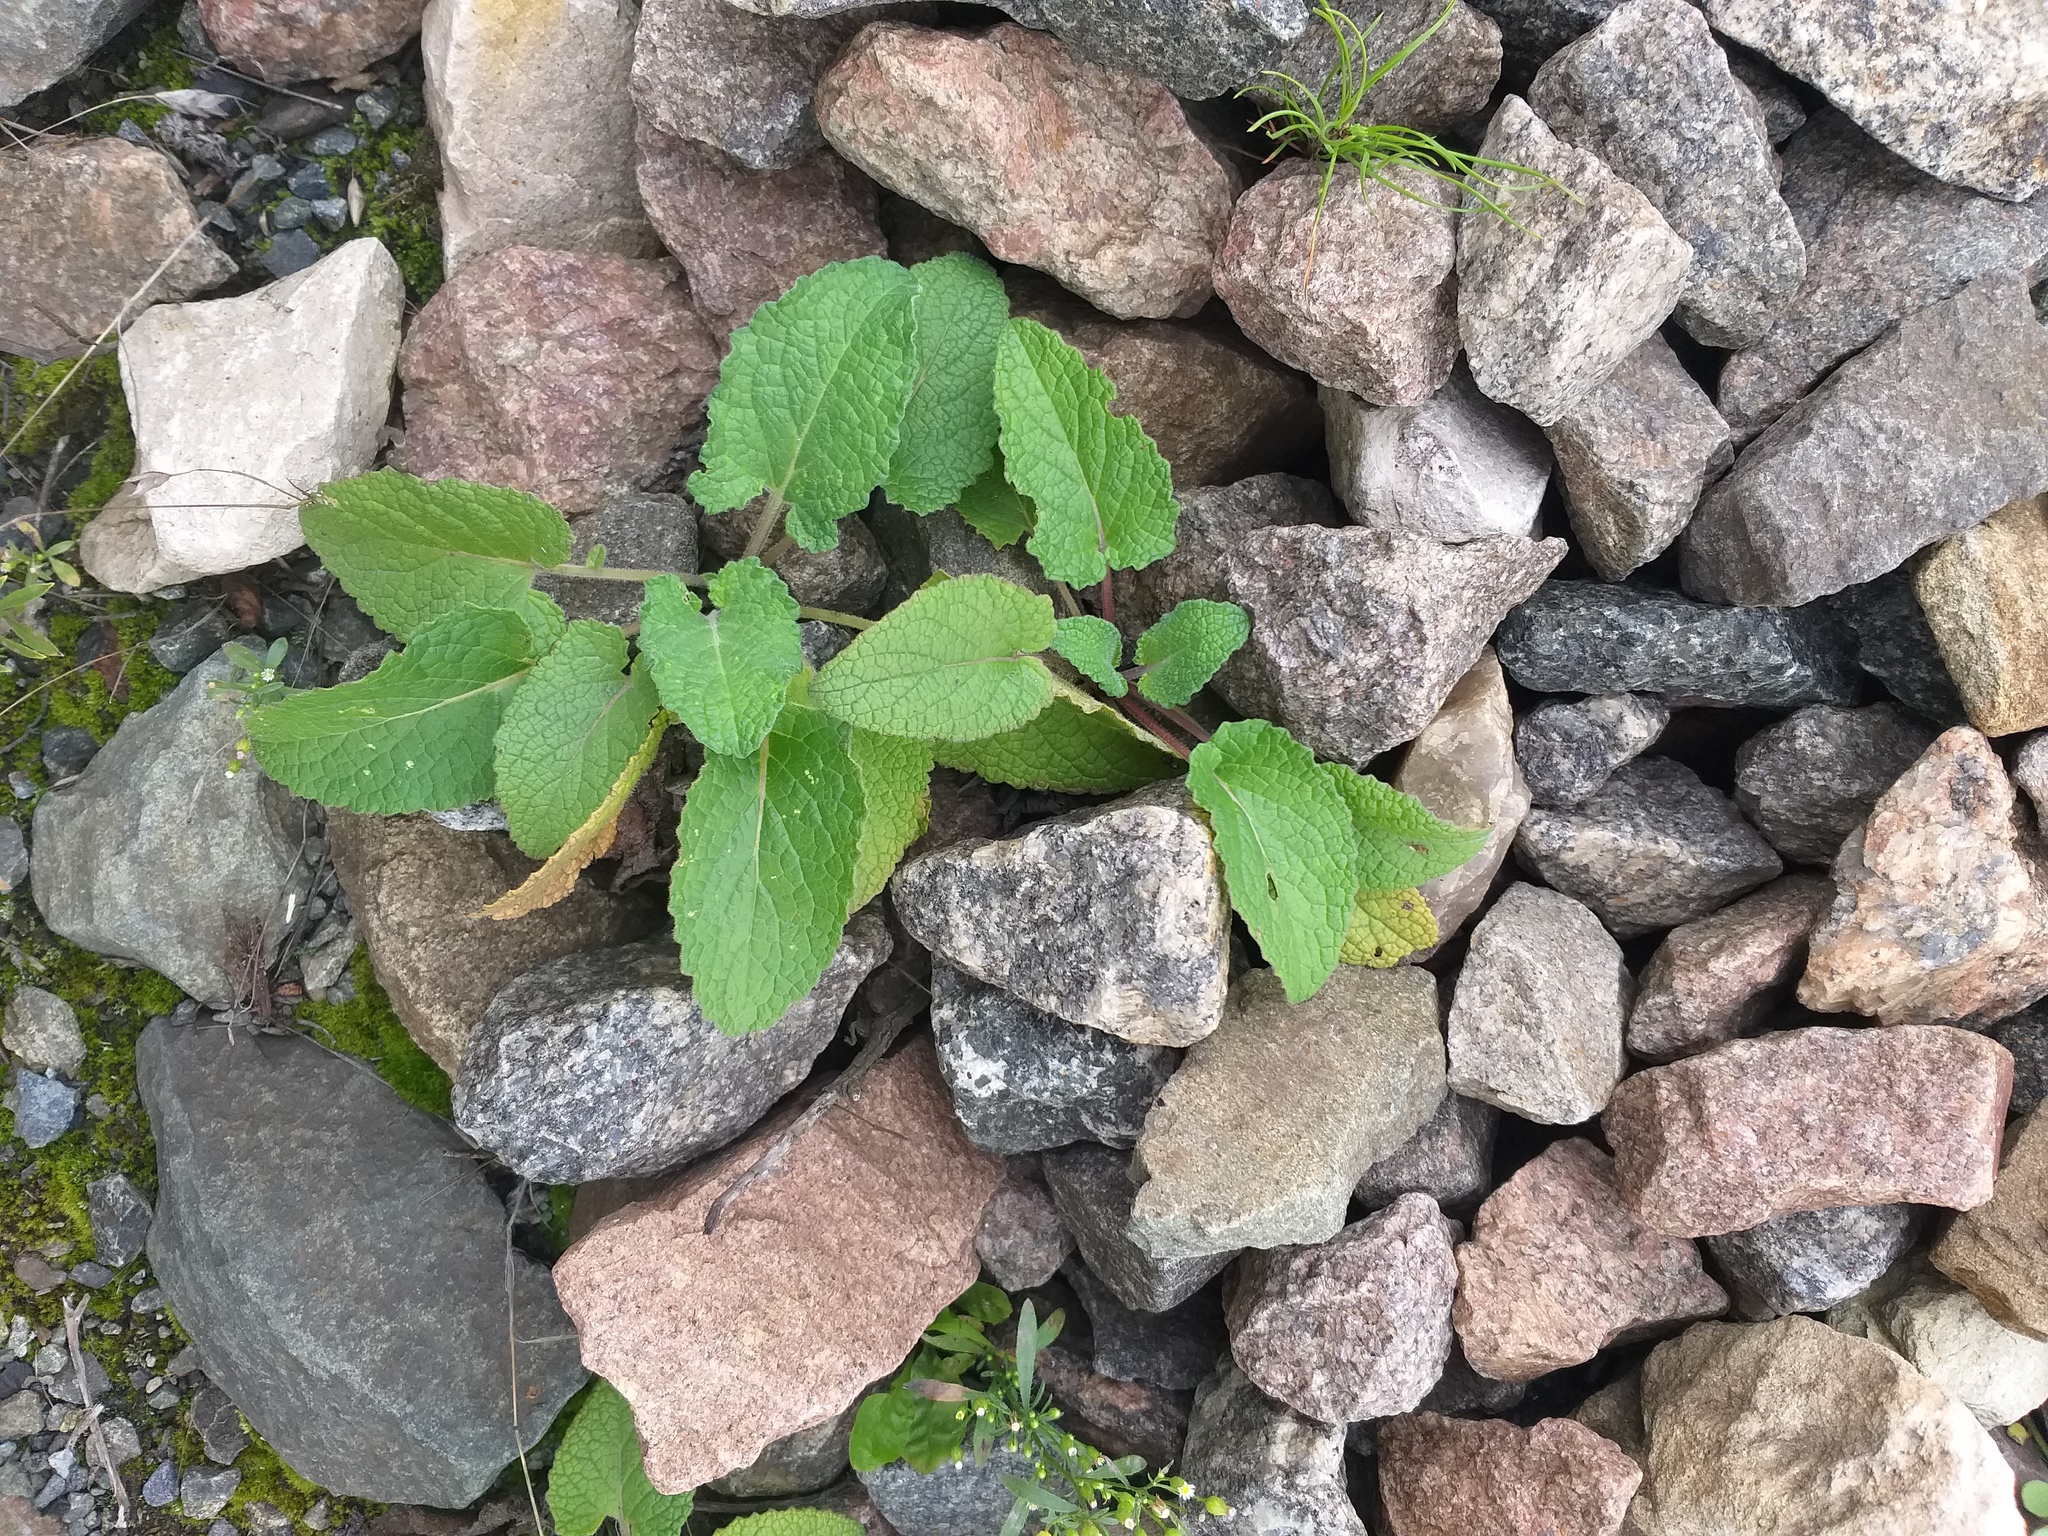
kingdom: Plantae
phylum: Tracheophyta
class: Magnoliopsida
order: Lamiales
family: Lamiaceae
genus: Salvia
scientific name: Salvia verticillata
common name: Whorled clary
